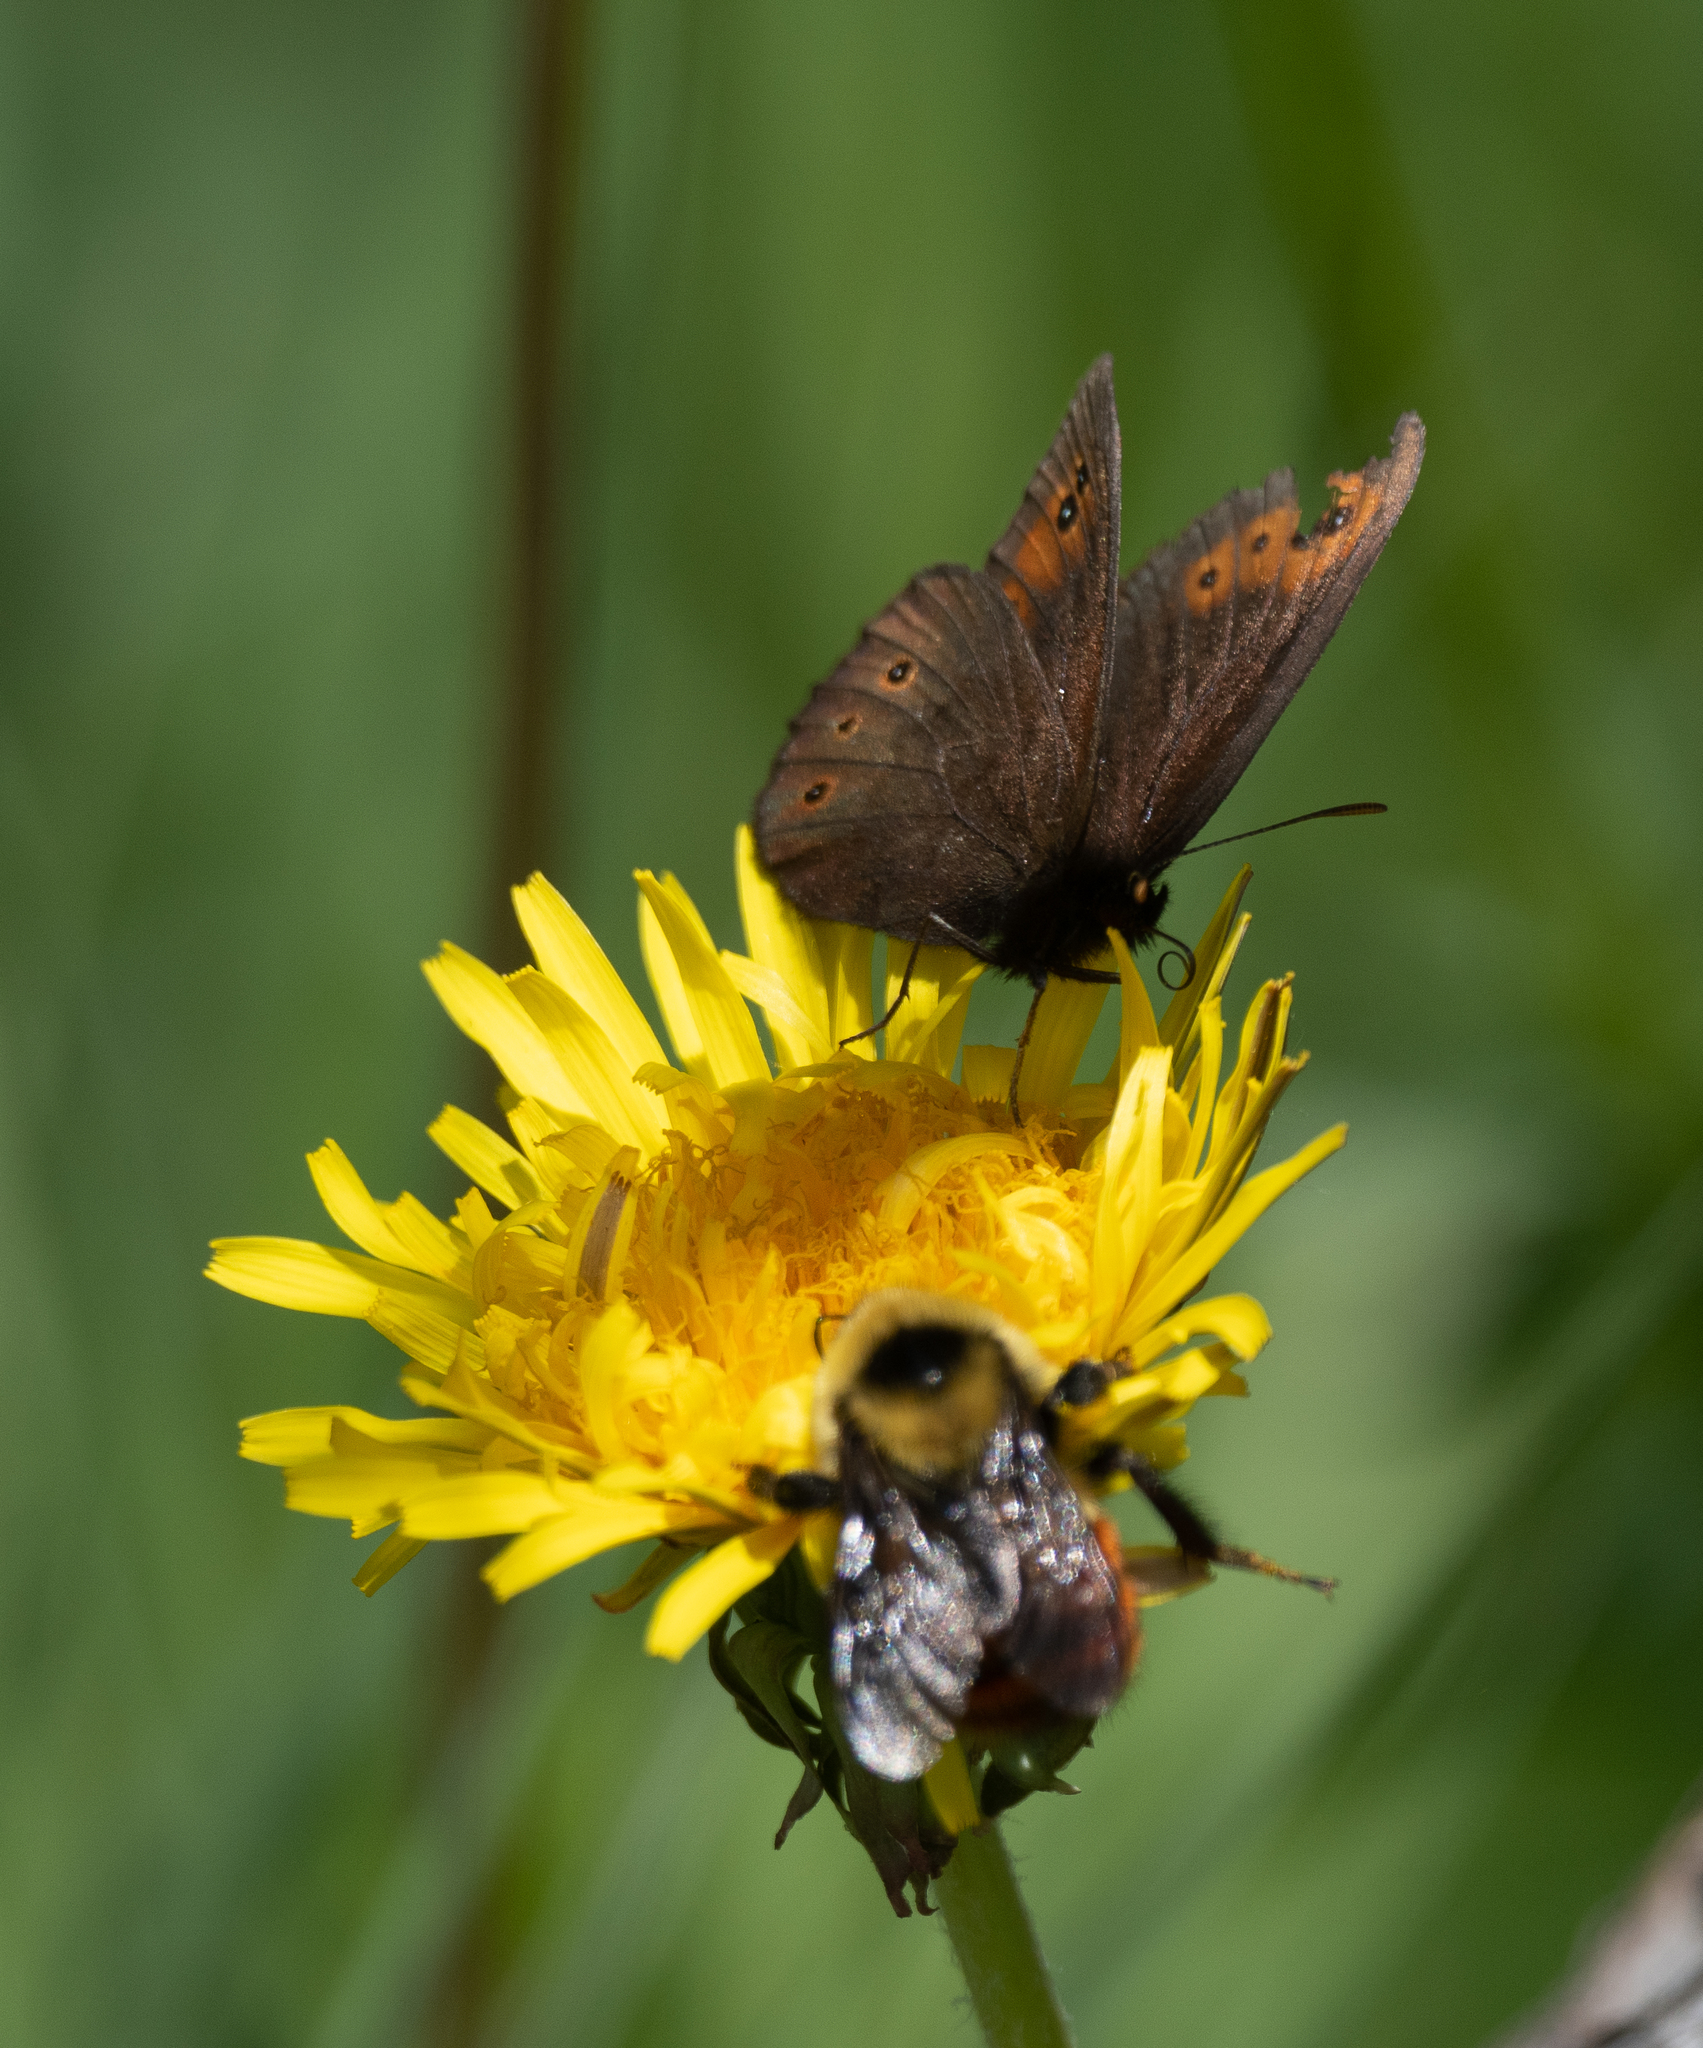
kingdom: Animalia
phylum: Arthropoda
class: Insecta
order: Lepidoptera
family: Nymphalidae
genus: Erebia
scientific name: Erebia epipsodea
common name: Common alpine
